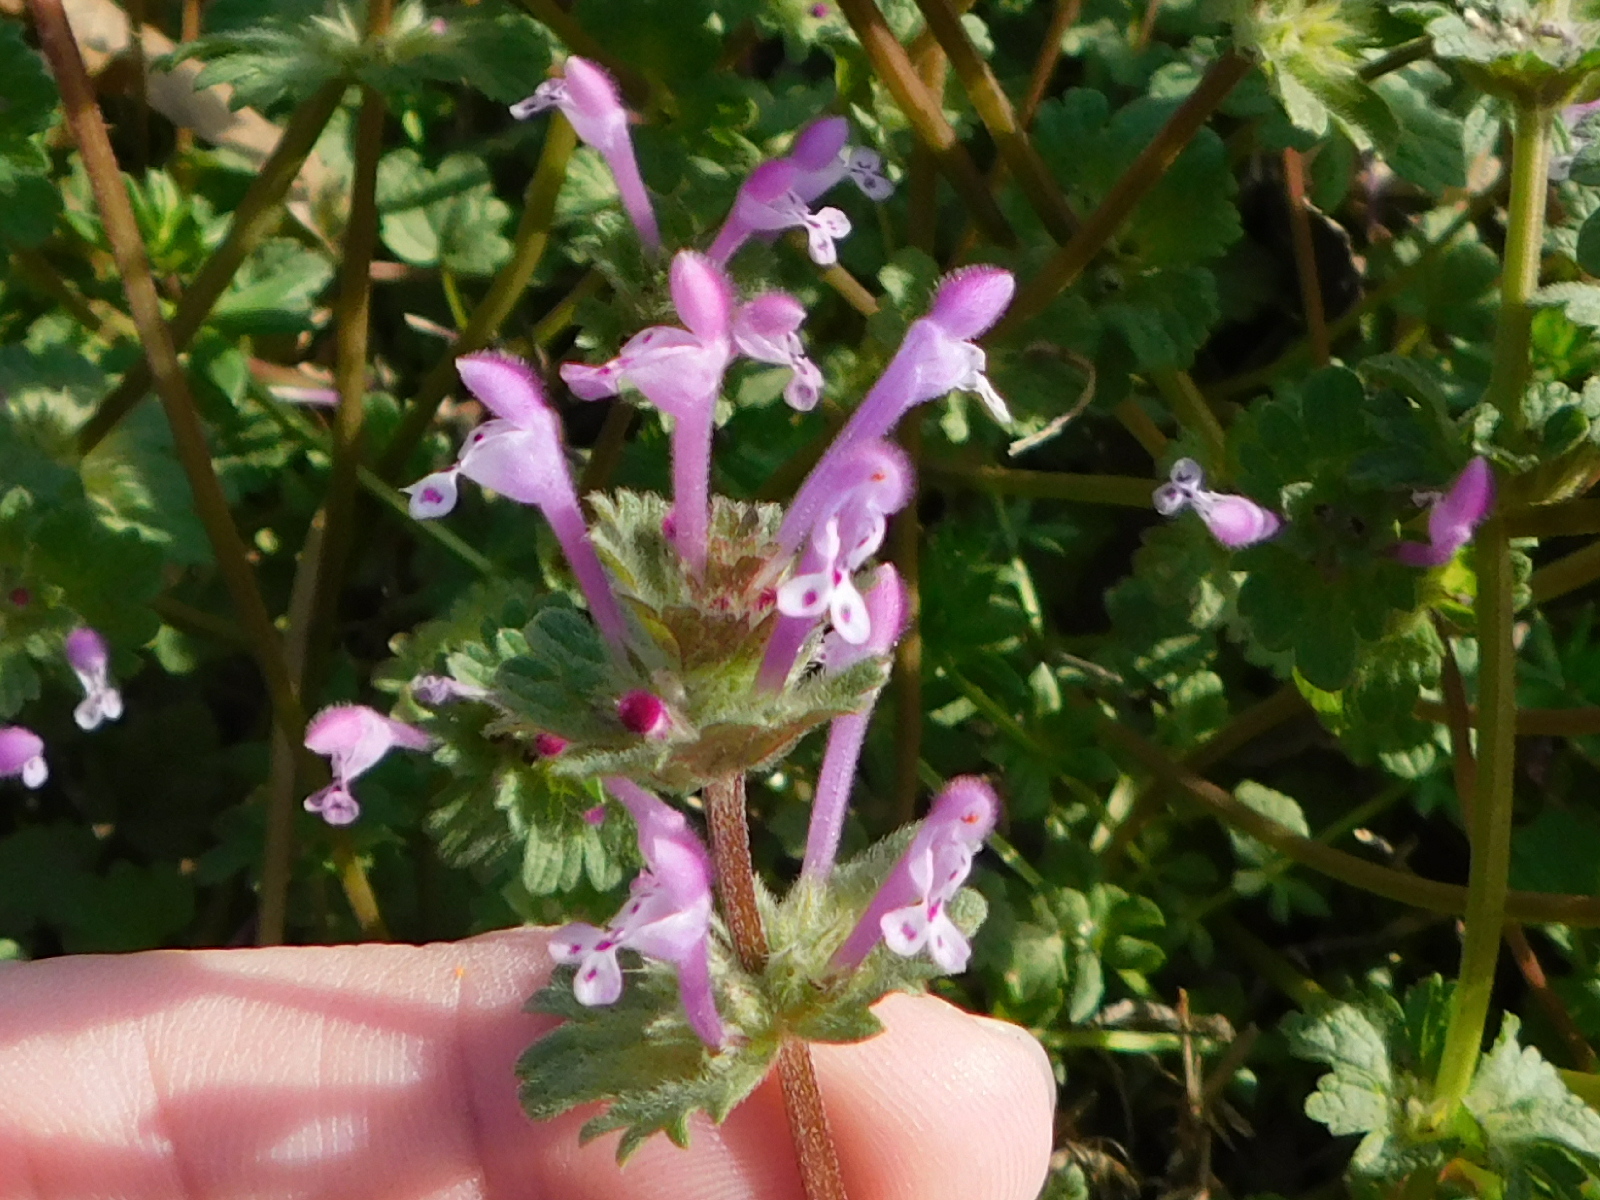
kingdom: Plantae
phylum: Tracheophyta
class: Magnoliopsida
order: Lamiales
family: Lamiaceae
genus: Lamium
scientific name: Lamium amplexicaule
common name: Henbit dead-nettle
